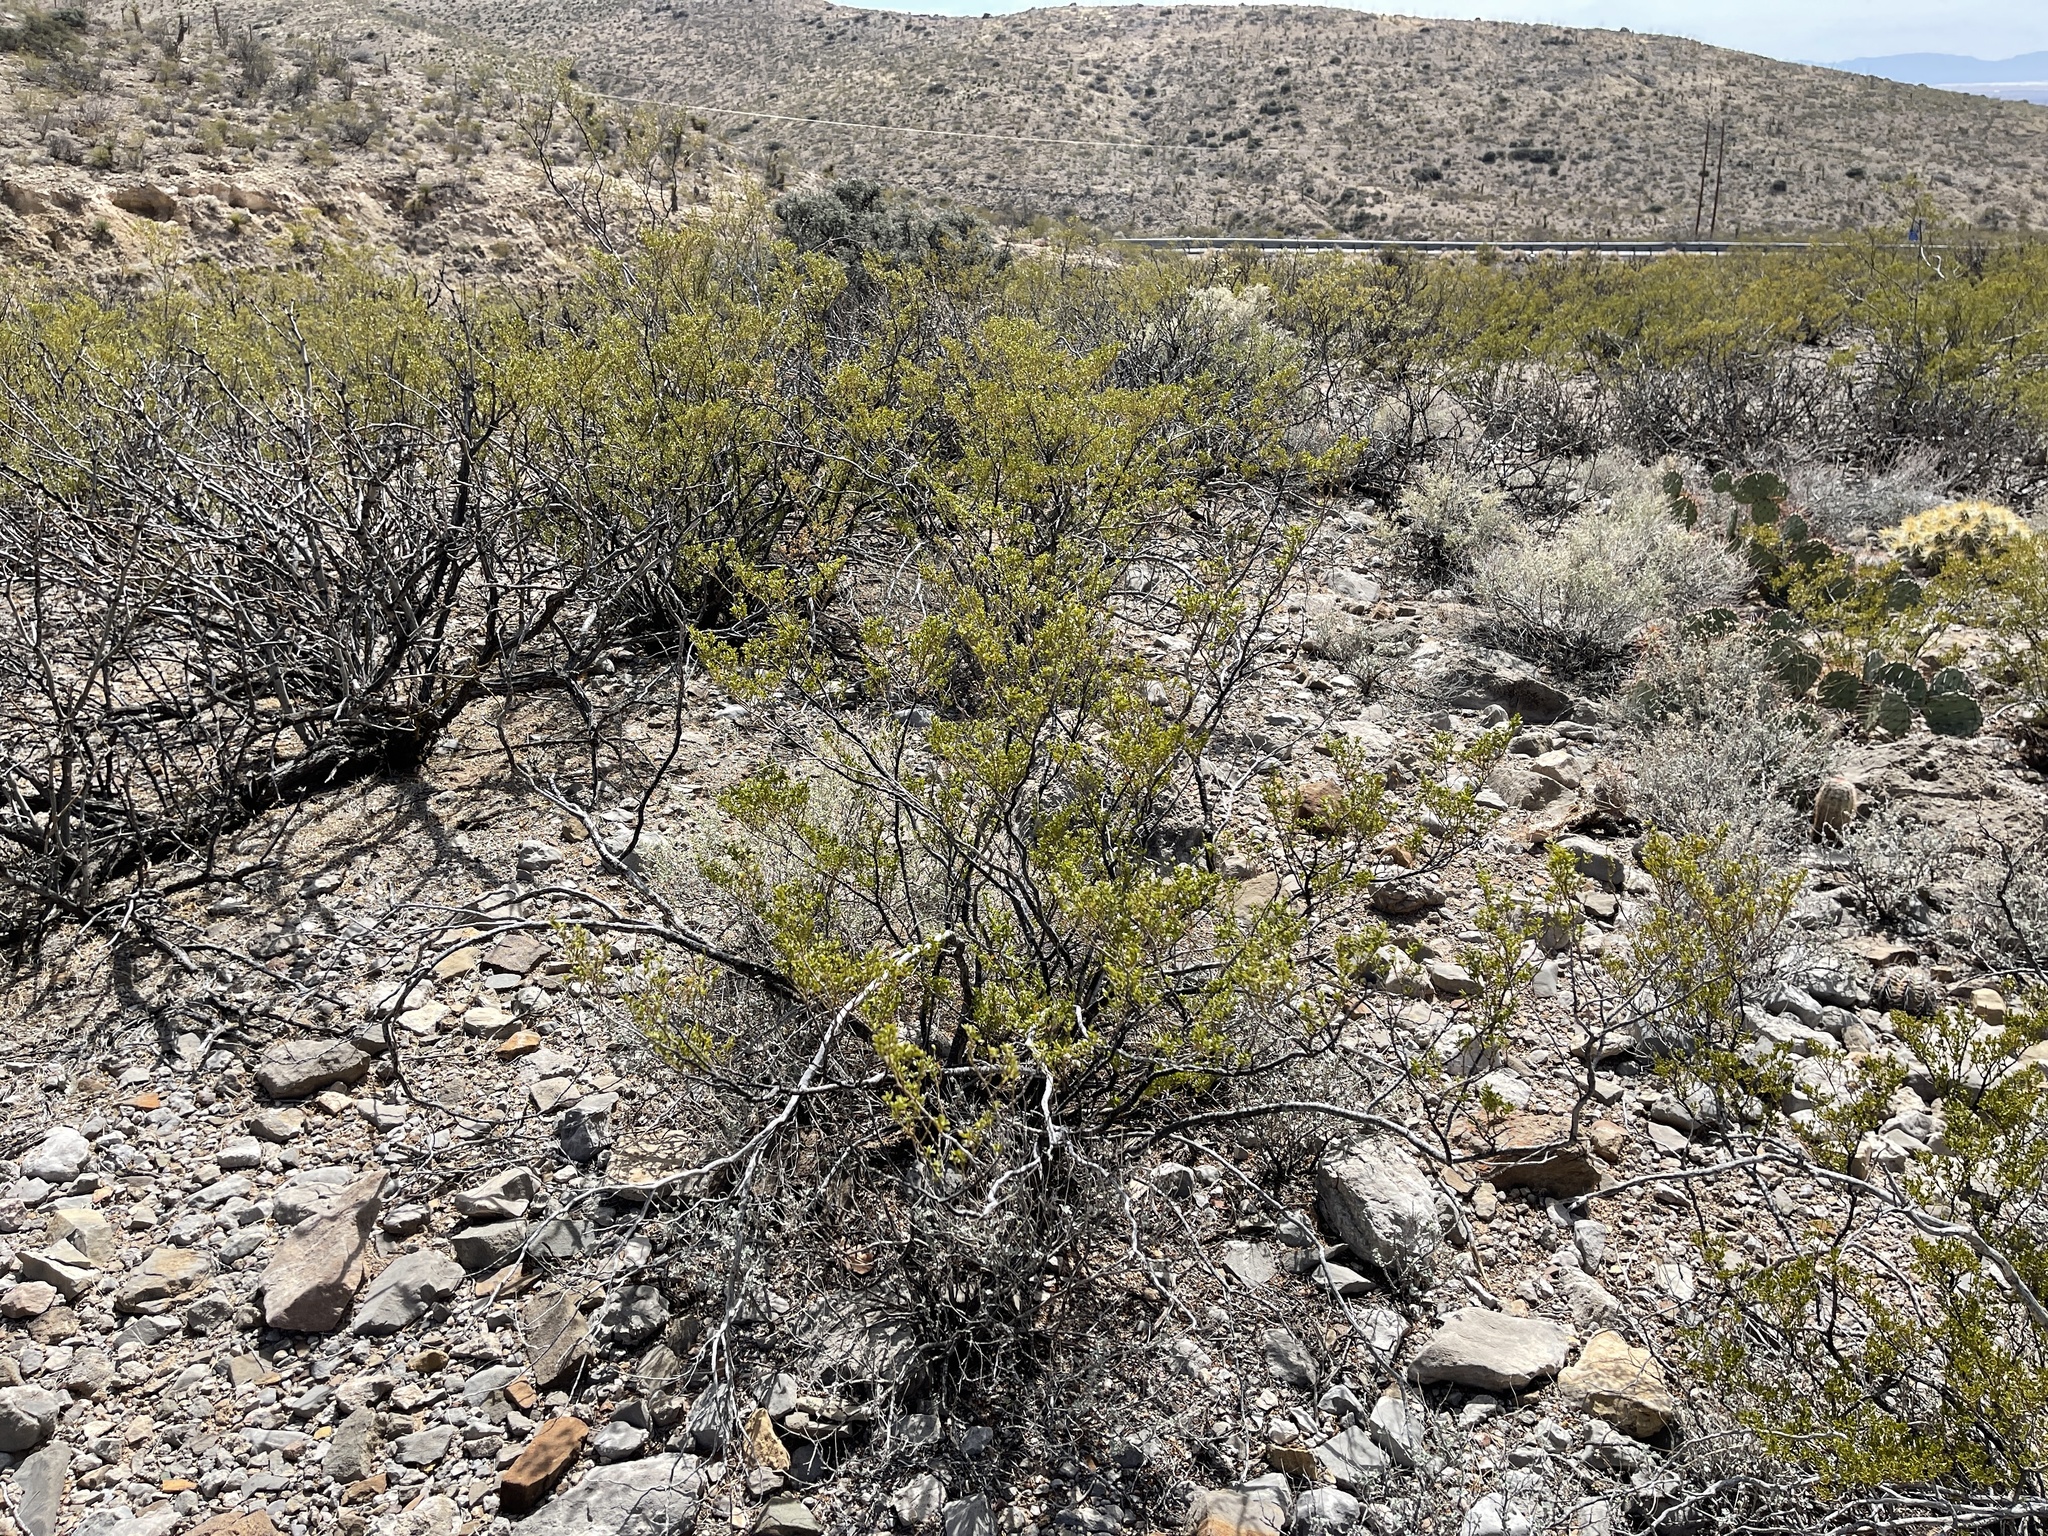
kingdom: Plantae
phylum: Tracheophyta
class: Magnoliopsida
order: Zygophyllales
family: Zygophyllaceae
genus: Larrea
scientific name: Larrea tridentata
